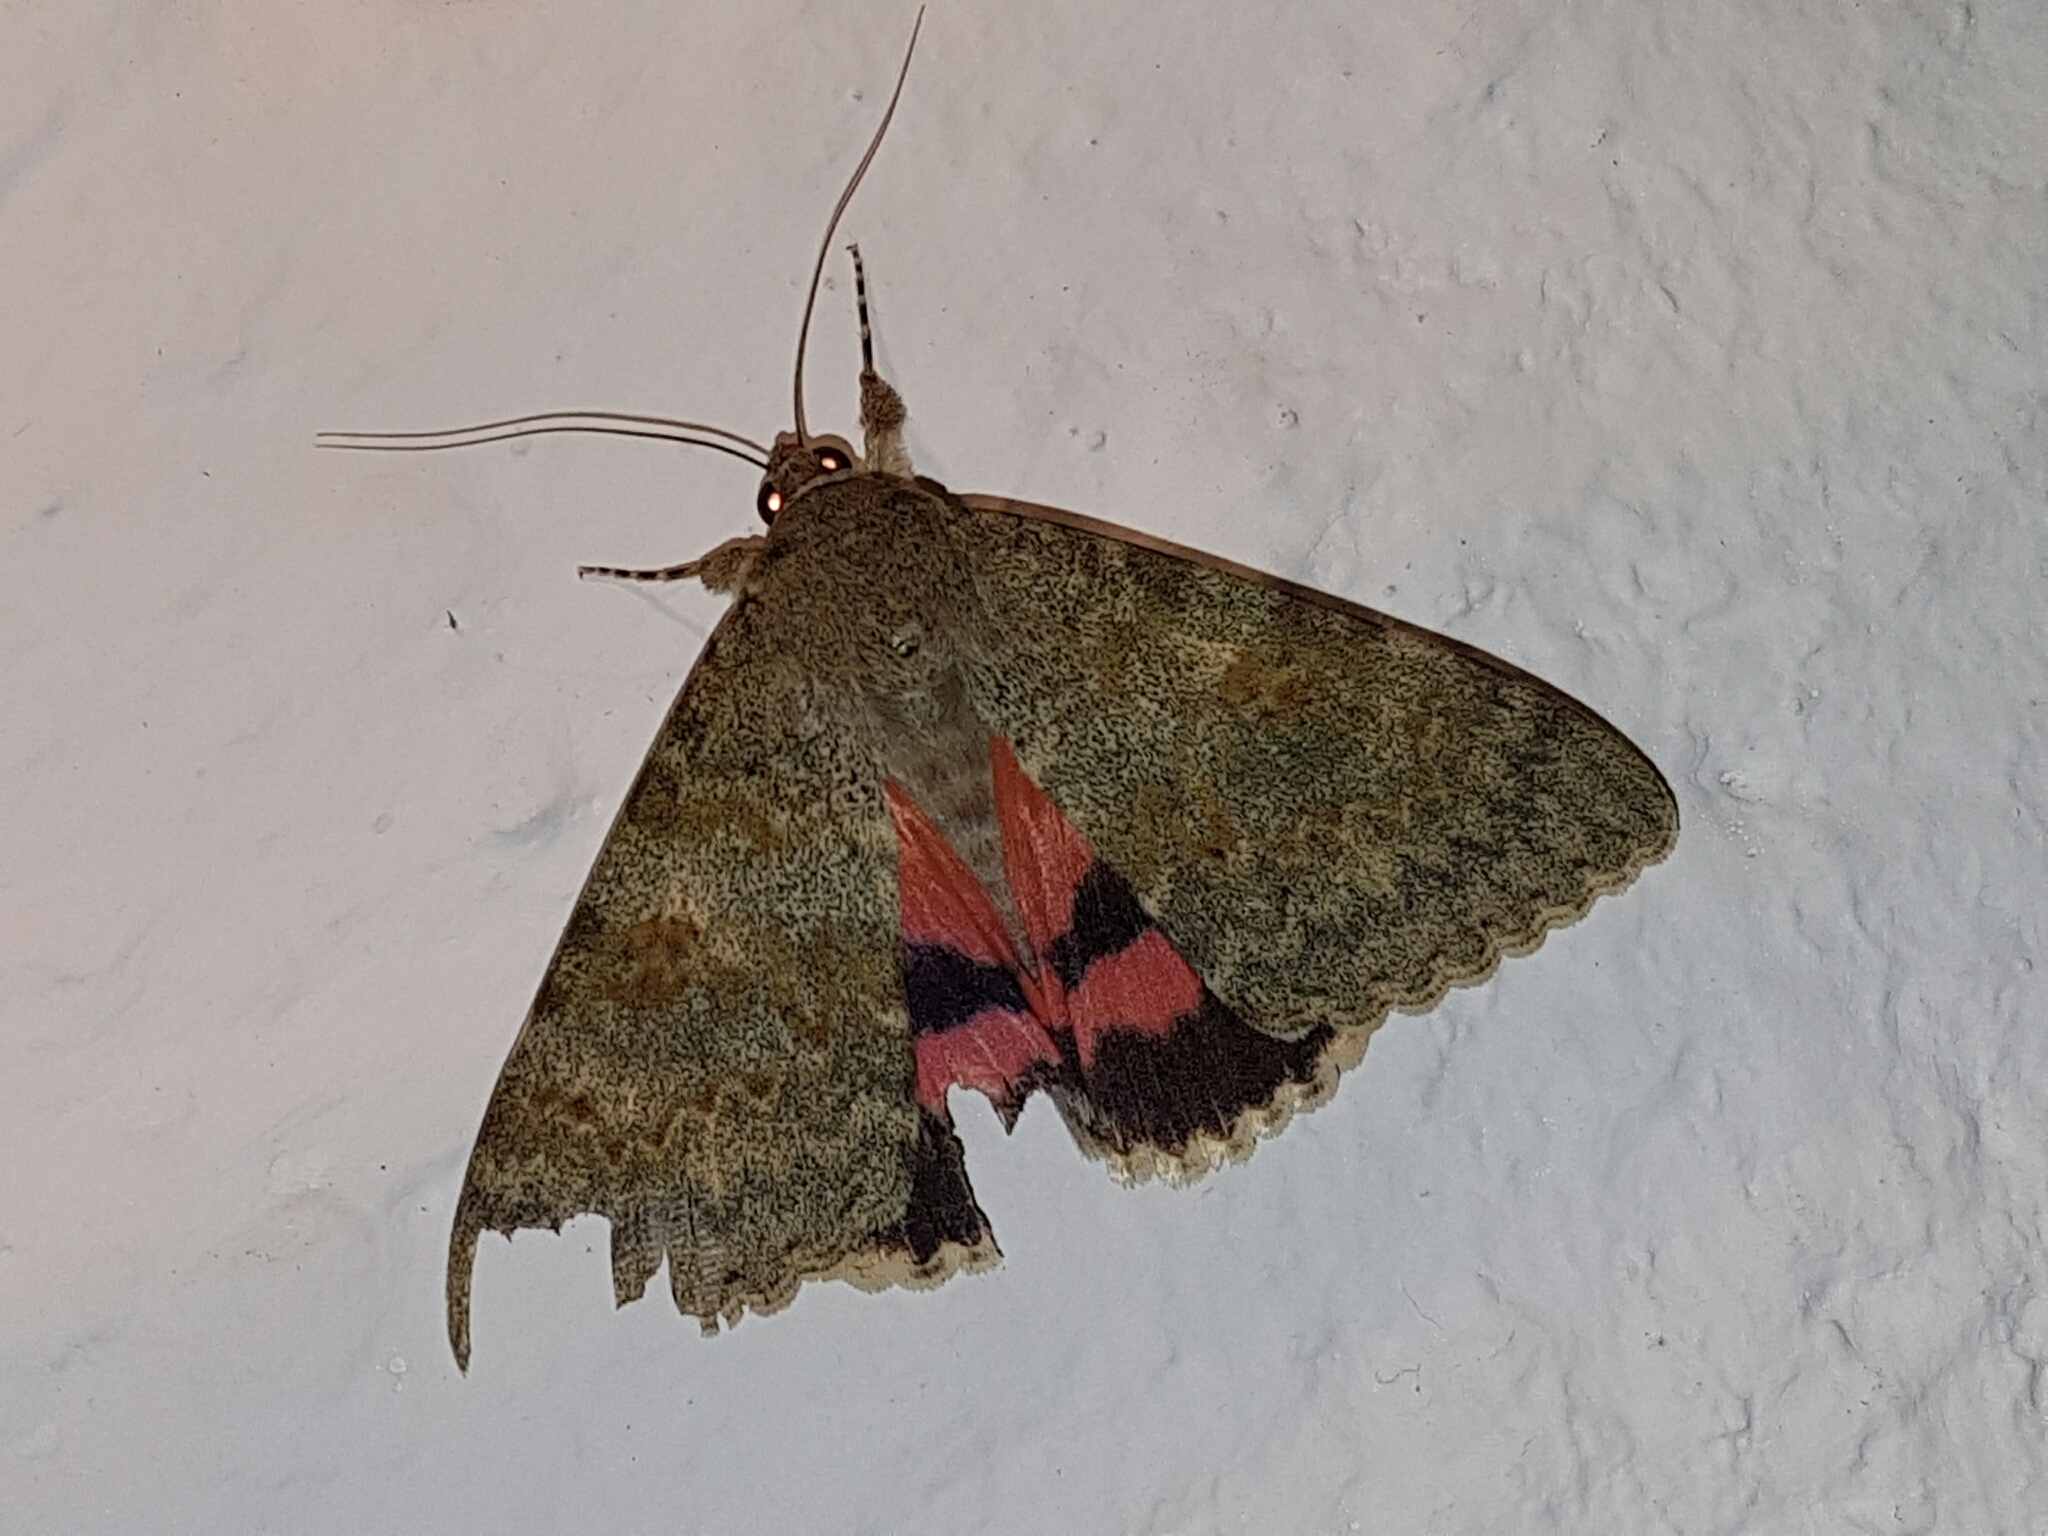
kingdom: Animalia
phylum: Arthropoda
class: Insecta
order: Lepidoptera
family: Erebidae
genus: Catocala
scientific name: Catocala elocata
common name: French red underwing
